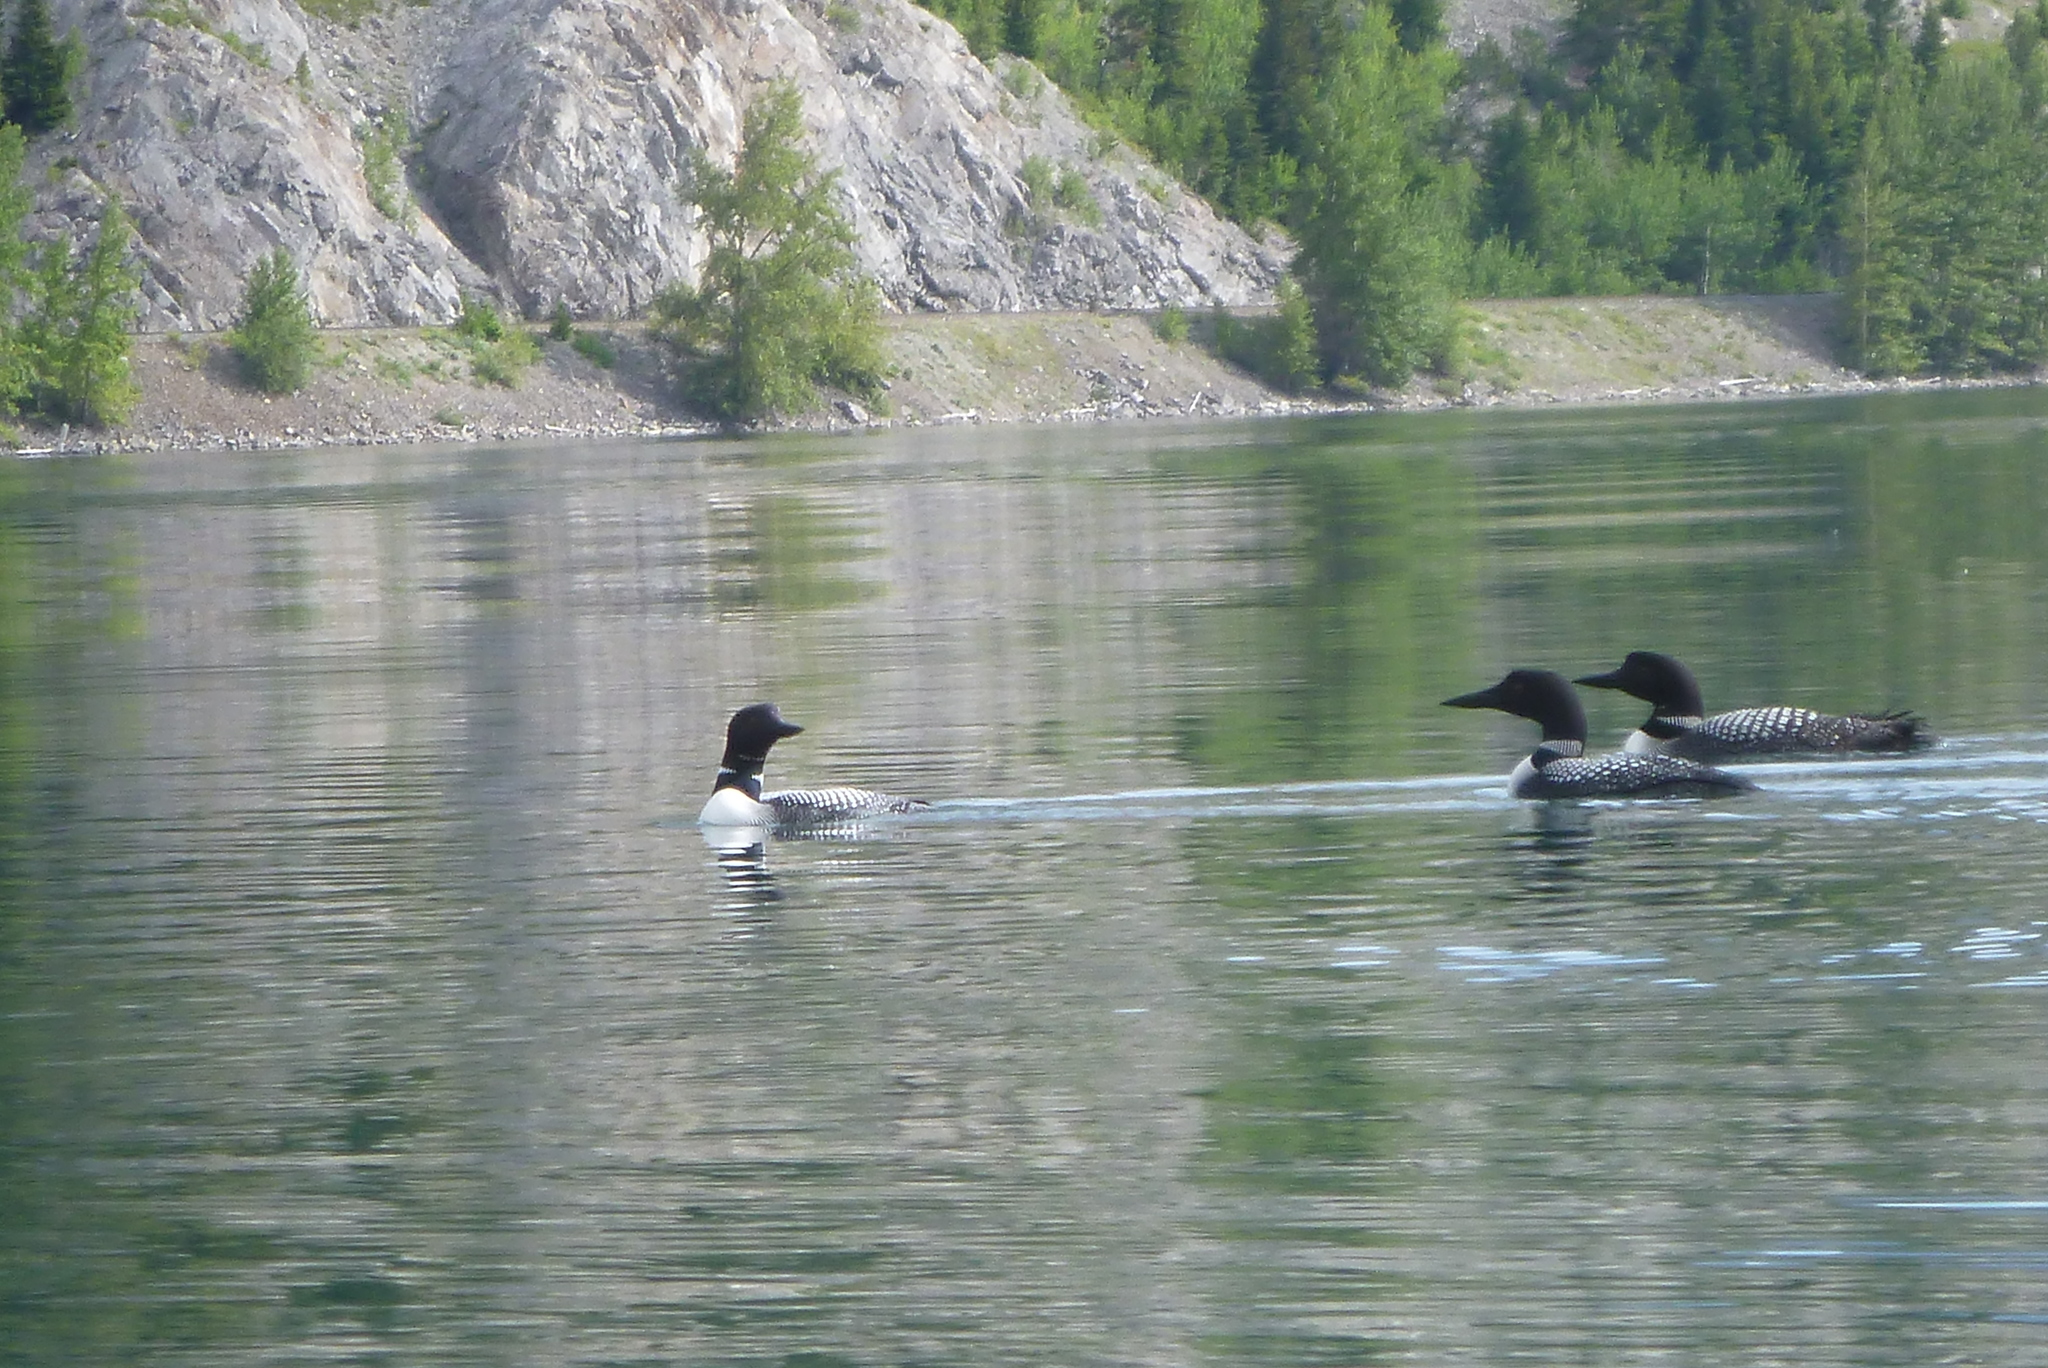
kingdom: Animalia
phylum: Chordata
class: Aves
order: Gaviiformes
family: Gaviidae
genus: Gavia
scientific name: Gavia immer
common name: Common loon
